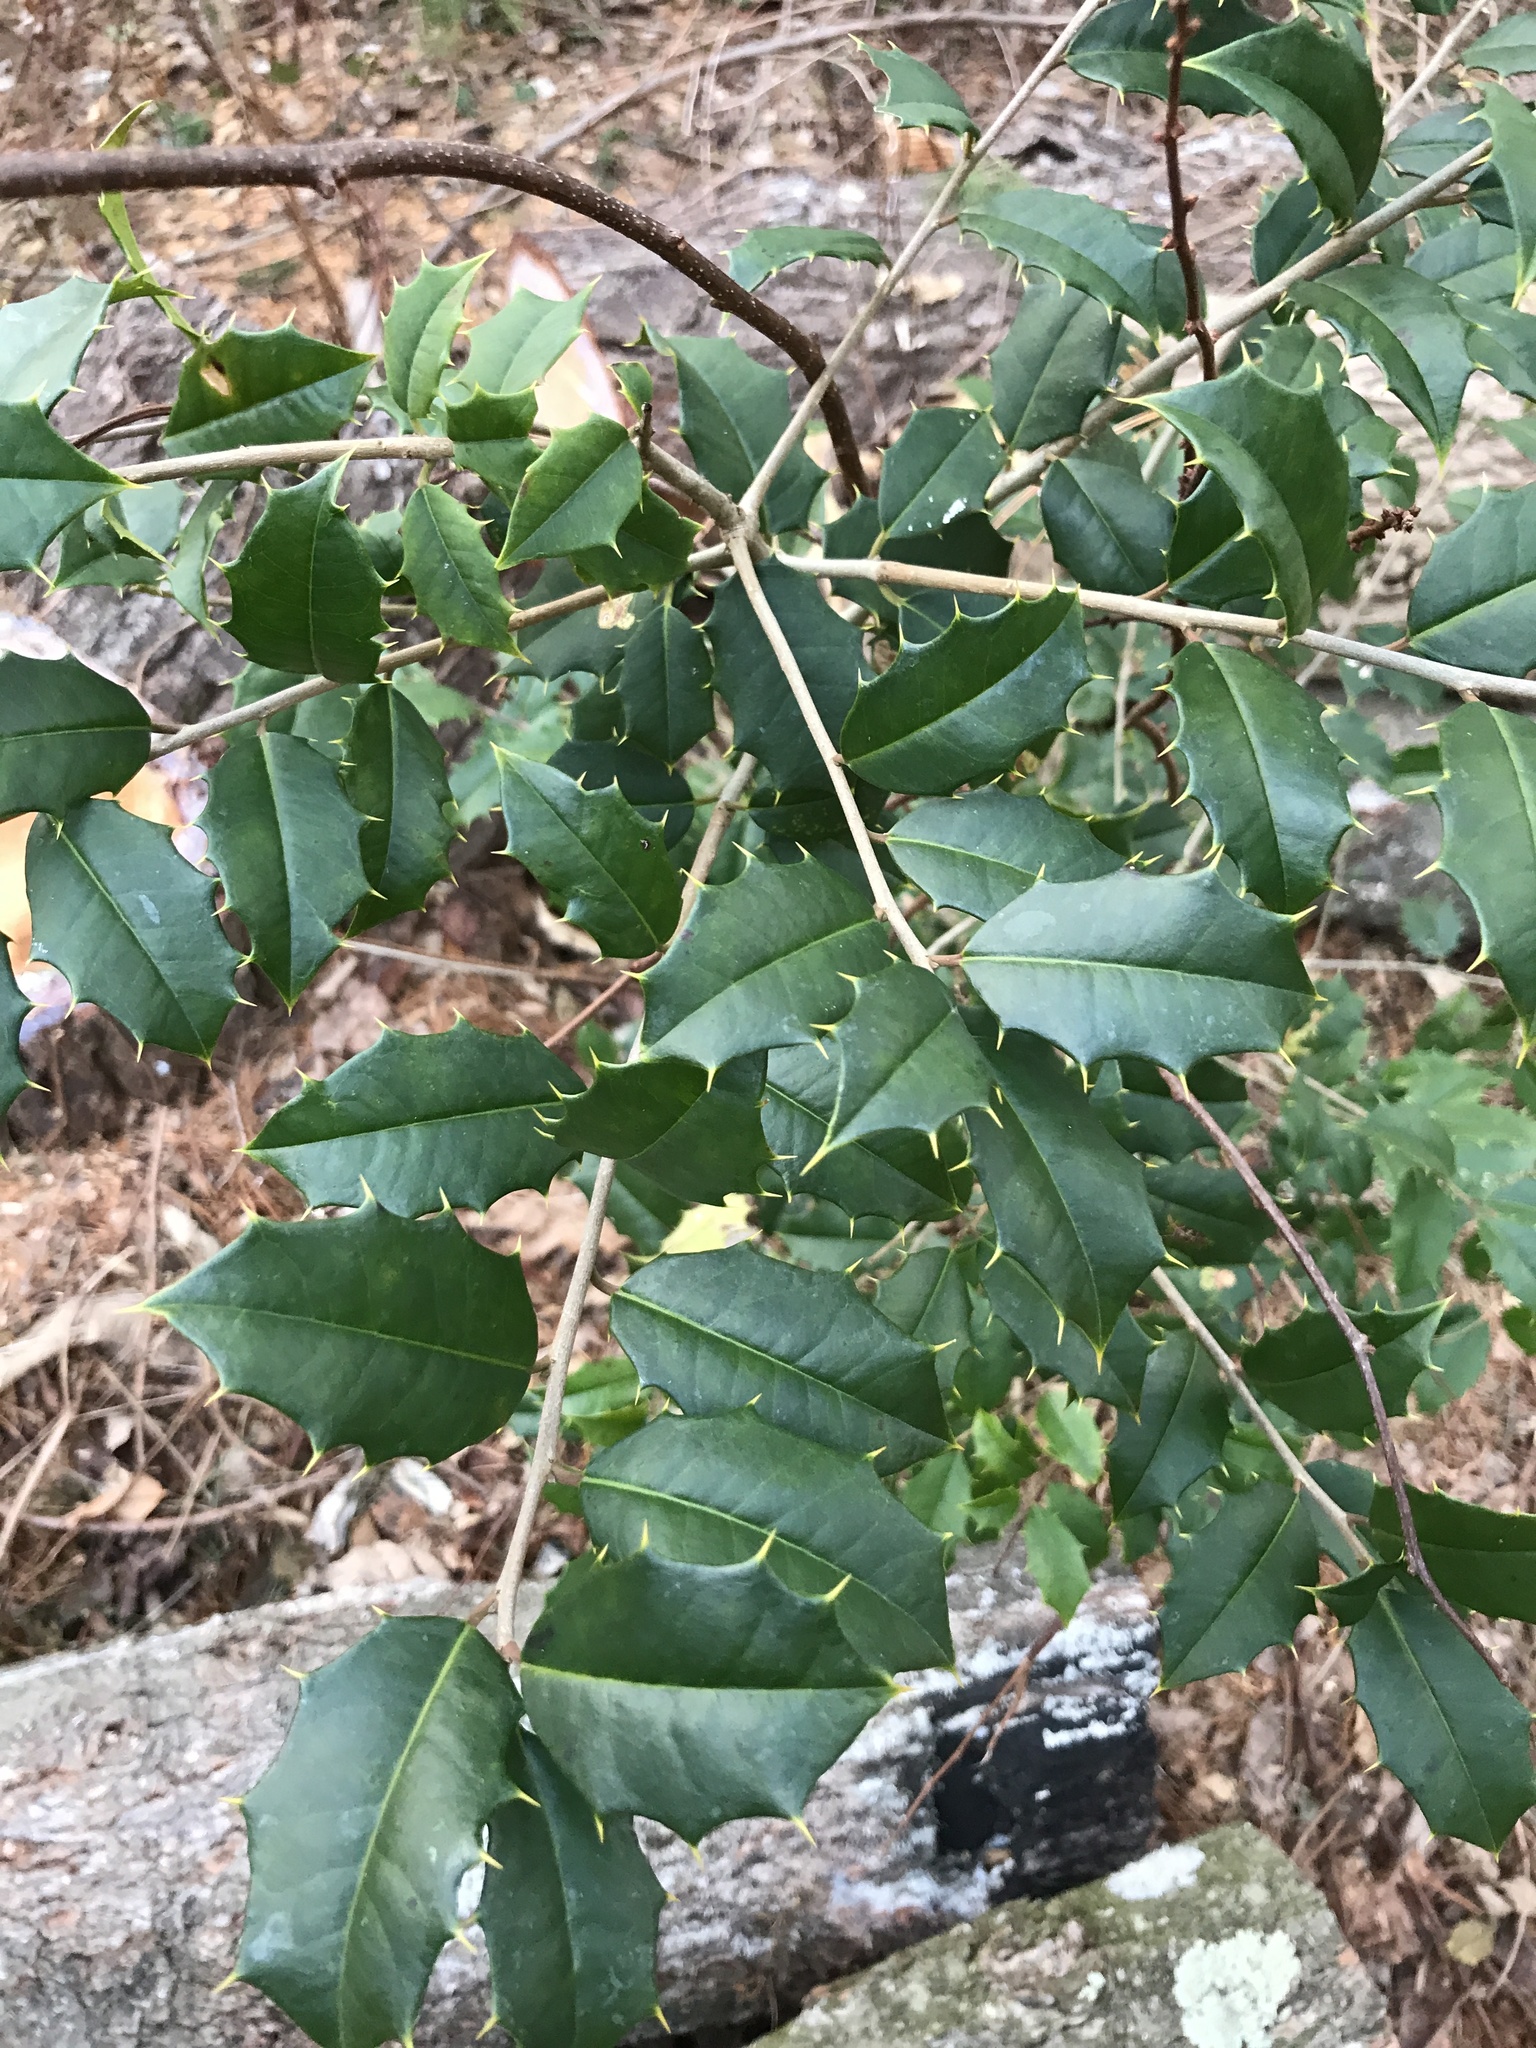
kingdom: Plantae
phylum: Tracheophyta
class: Magnoliopsida
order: Aquifoliales
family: Aquifoliaceae
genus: Ilex
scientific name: Ilex opaca
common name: American holly
